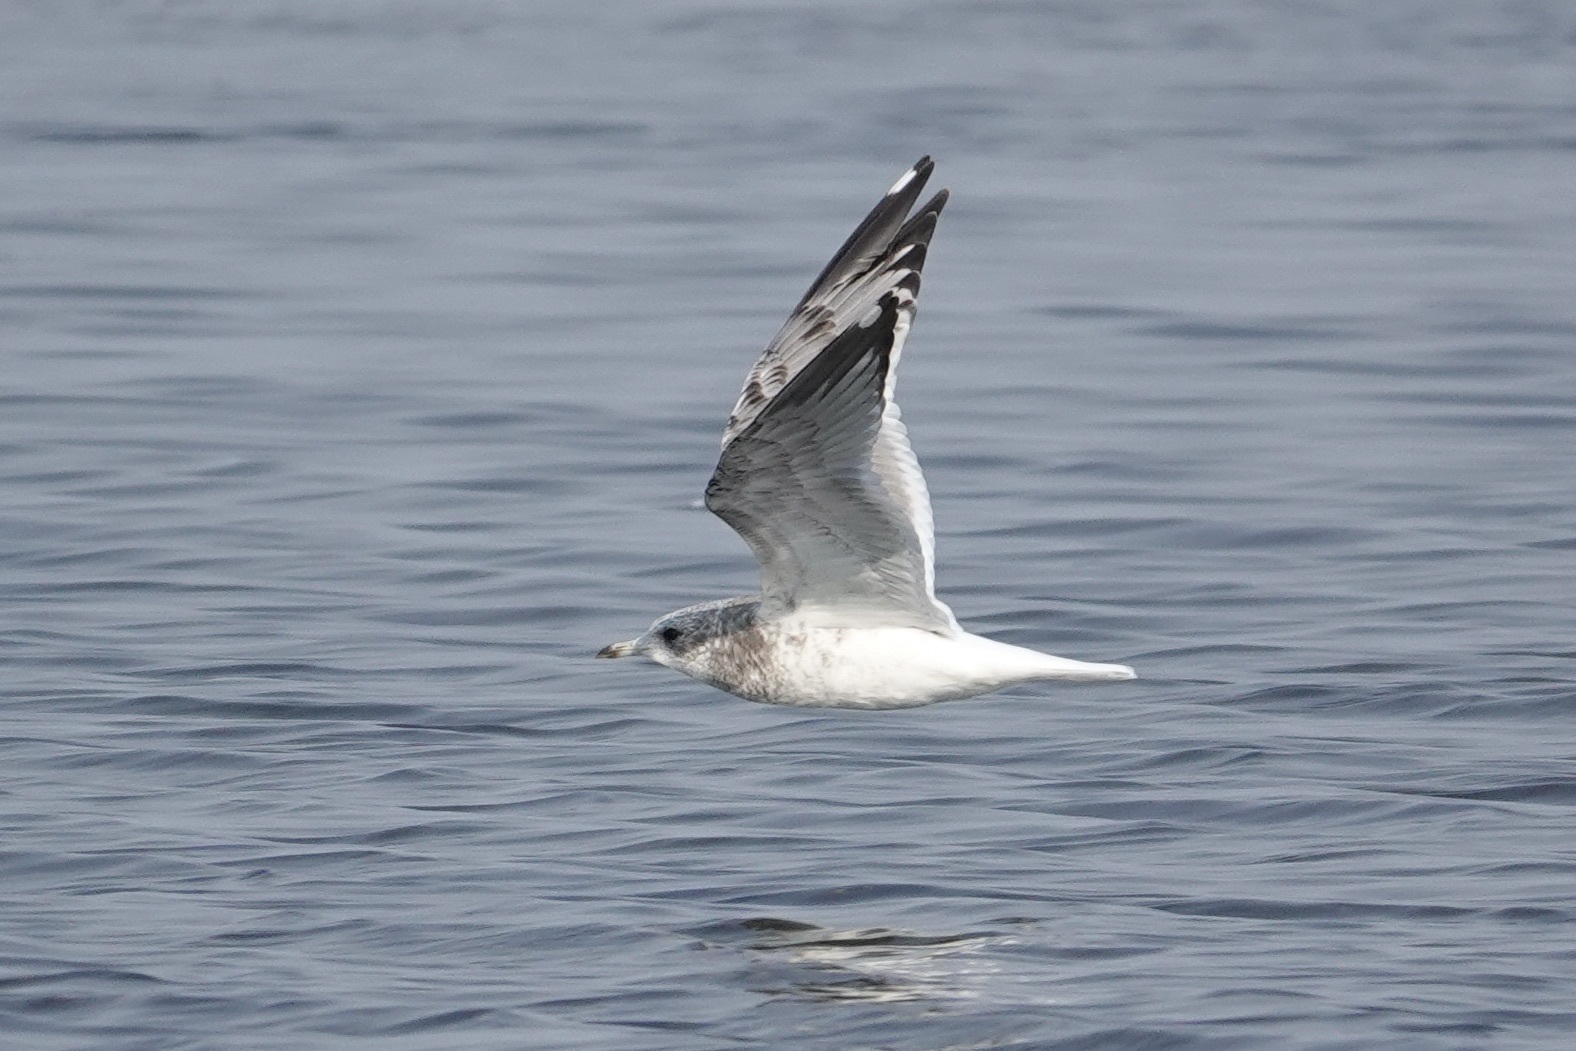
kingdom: Animalia
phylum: Chordata
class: Aves
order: Charadriiformes
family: Laridae
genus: Larus
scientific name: Larus brachyrhynchus
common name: Short-billed gull
